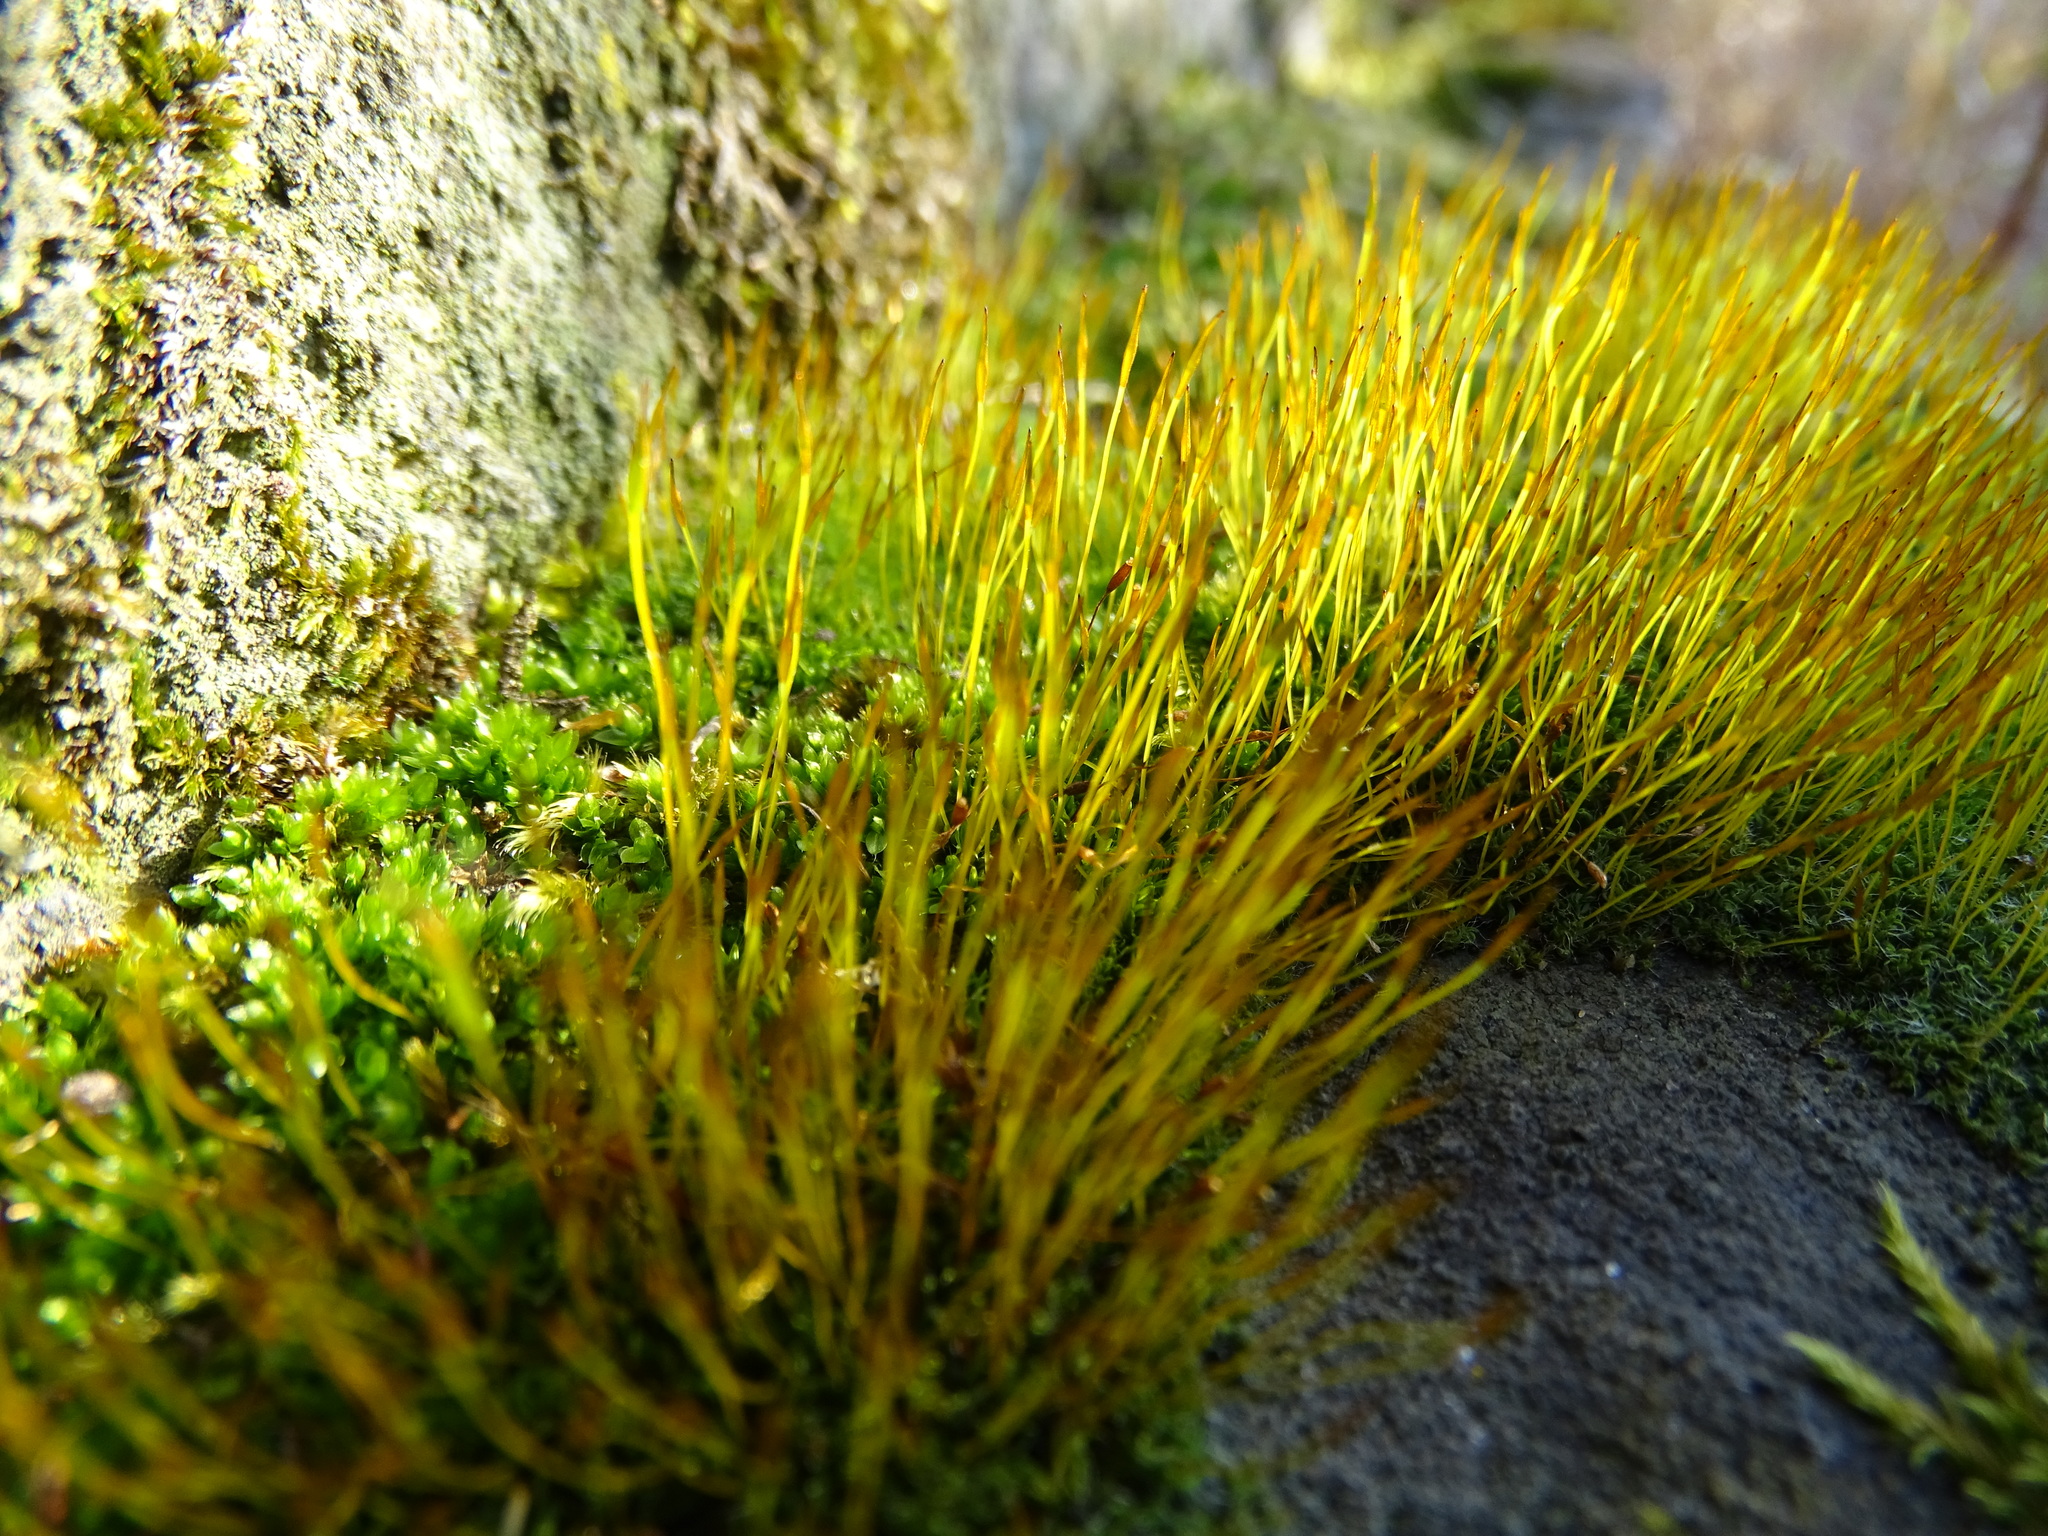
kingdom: Plantae
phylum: Bryophyta
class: Bryopsida
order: Pottiales
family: Pottiaceae
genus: Tortula
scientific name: Tortula muralis
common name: Wall screw-moss
